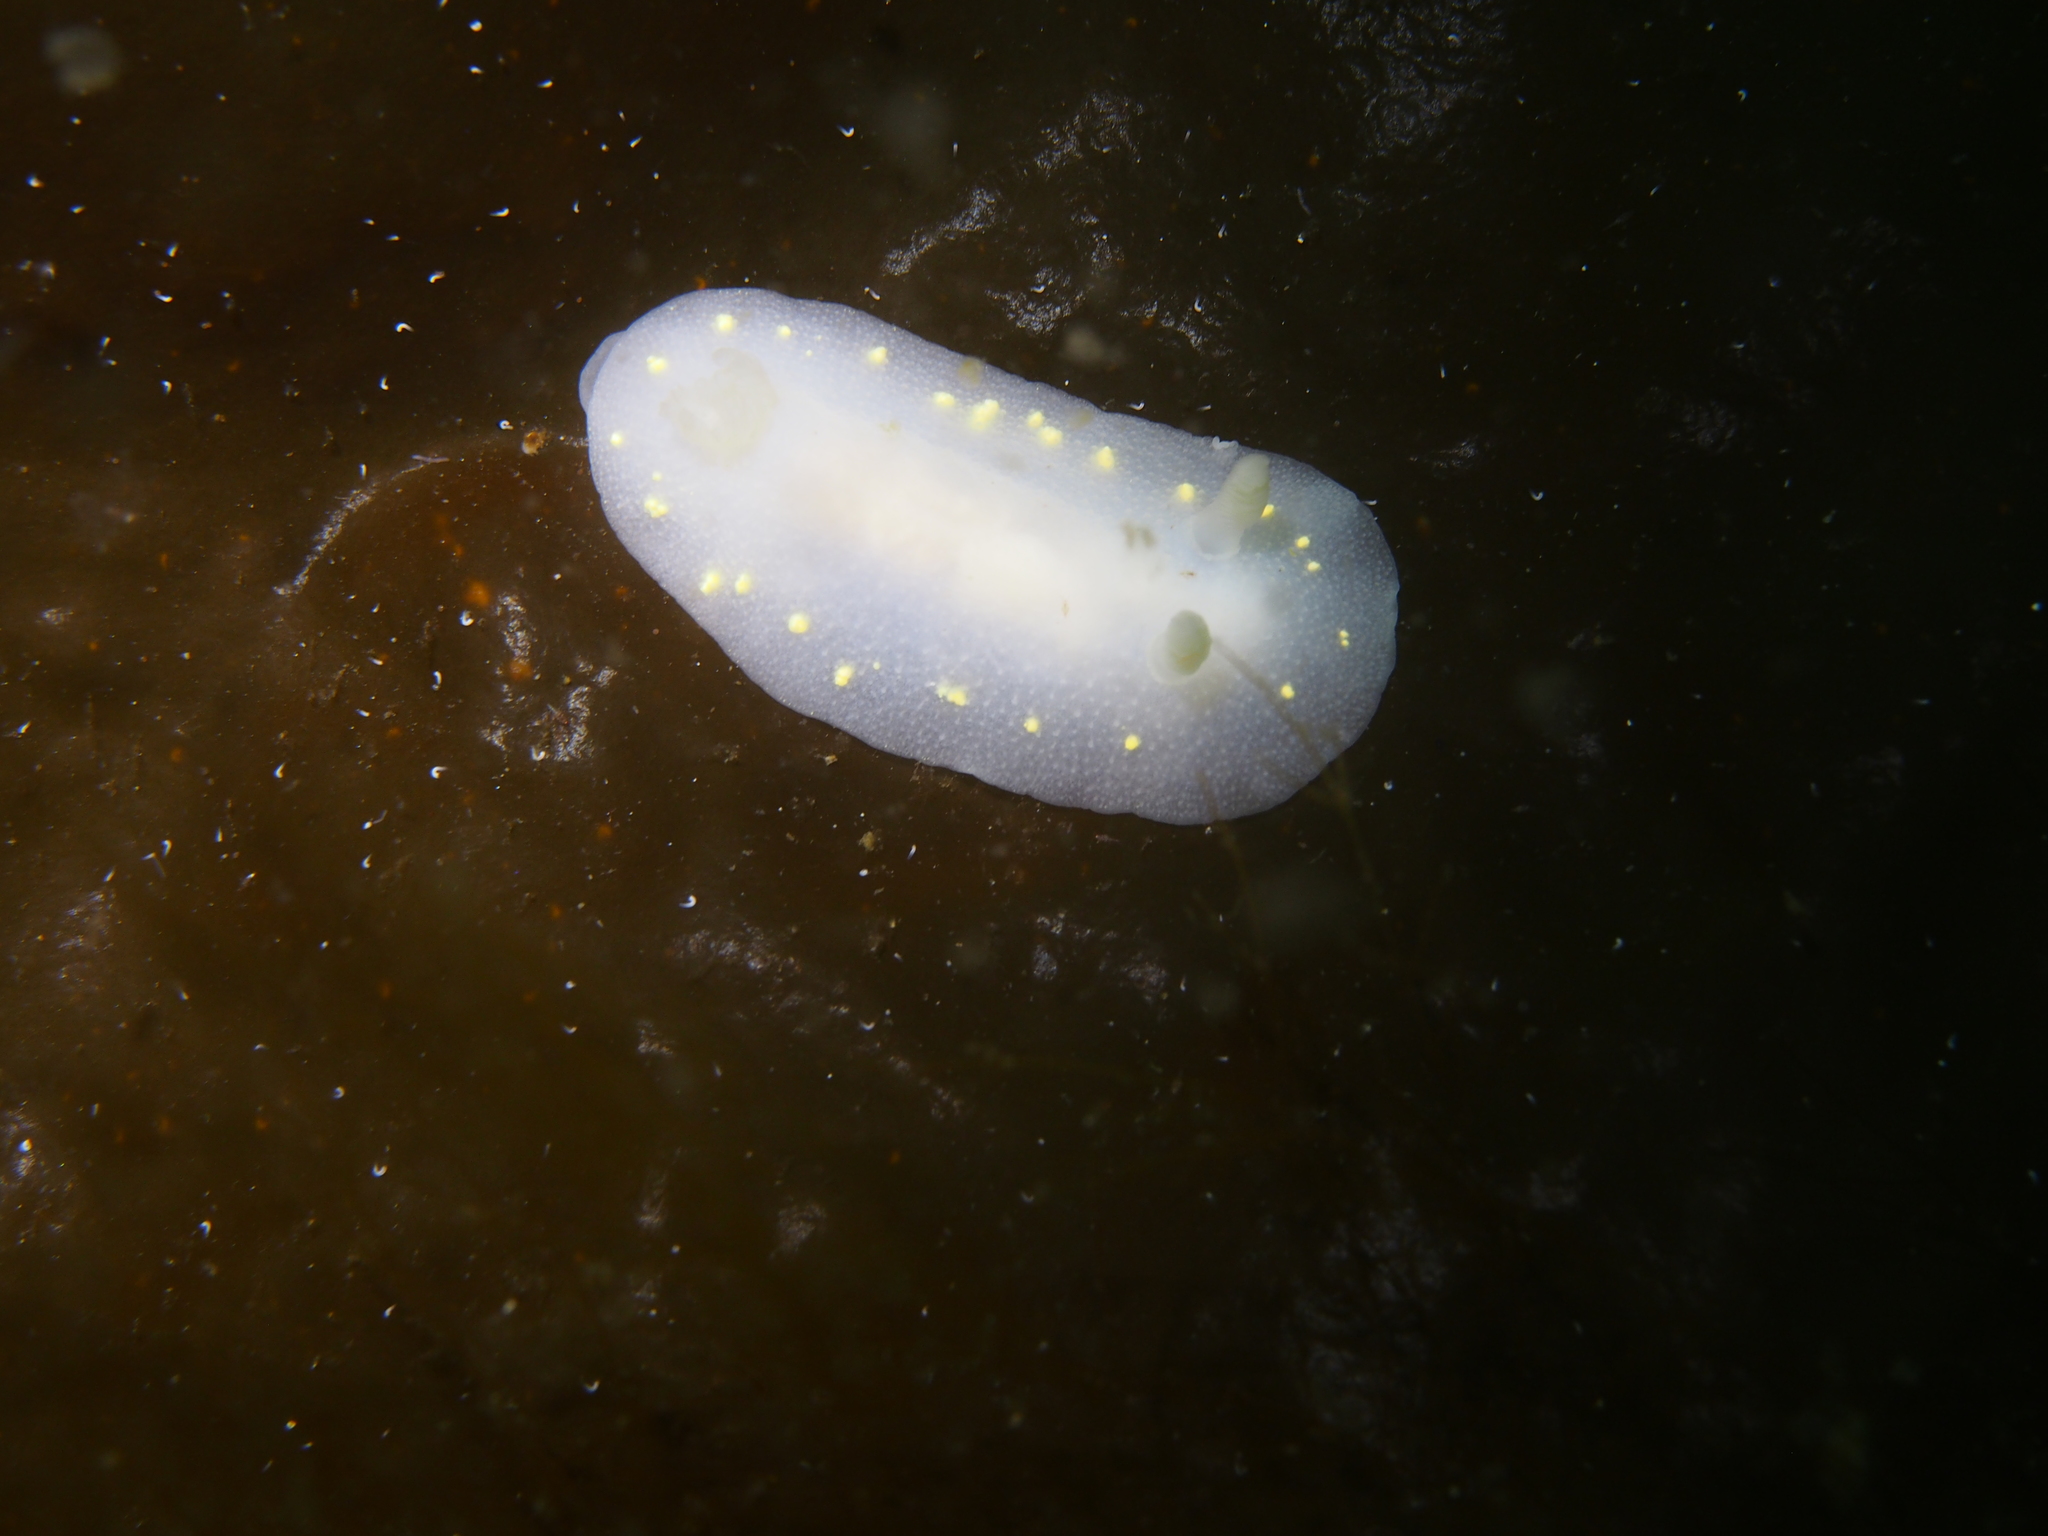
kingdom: Animalia
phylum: Mollusca
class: Gastropoda
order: Nudibranchia
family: Cadlinidae
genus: Cadlina
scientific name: Cadlina laevis
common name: White atlantic cadlina
